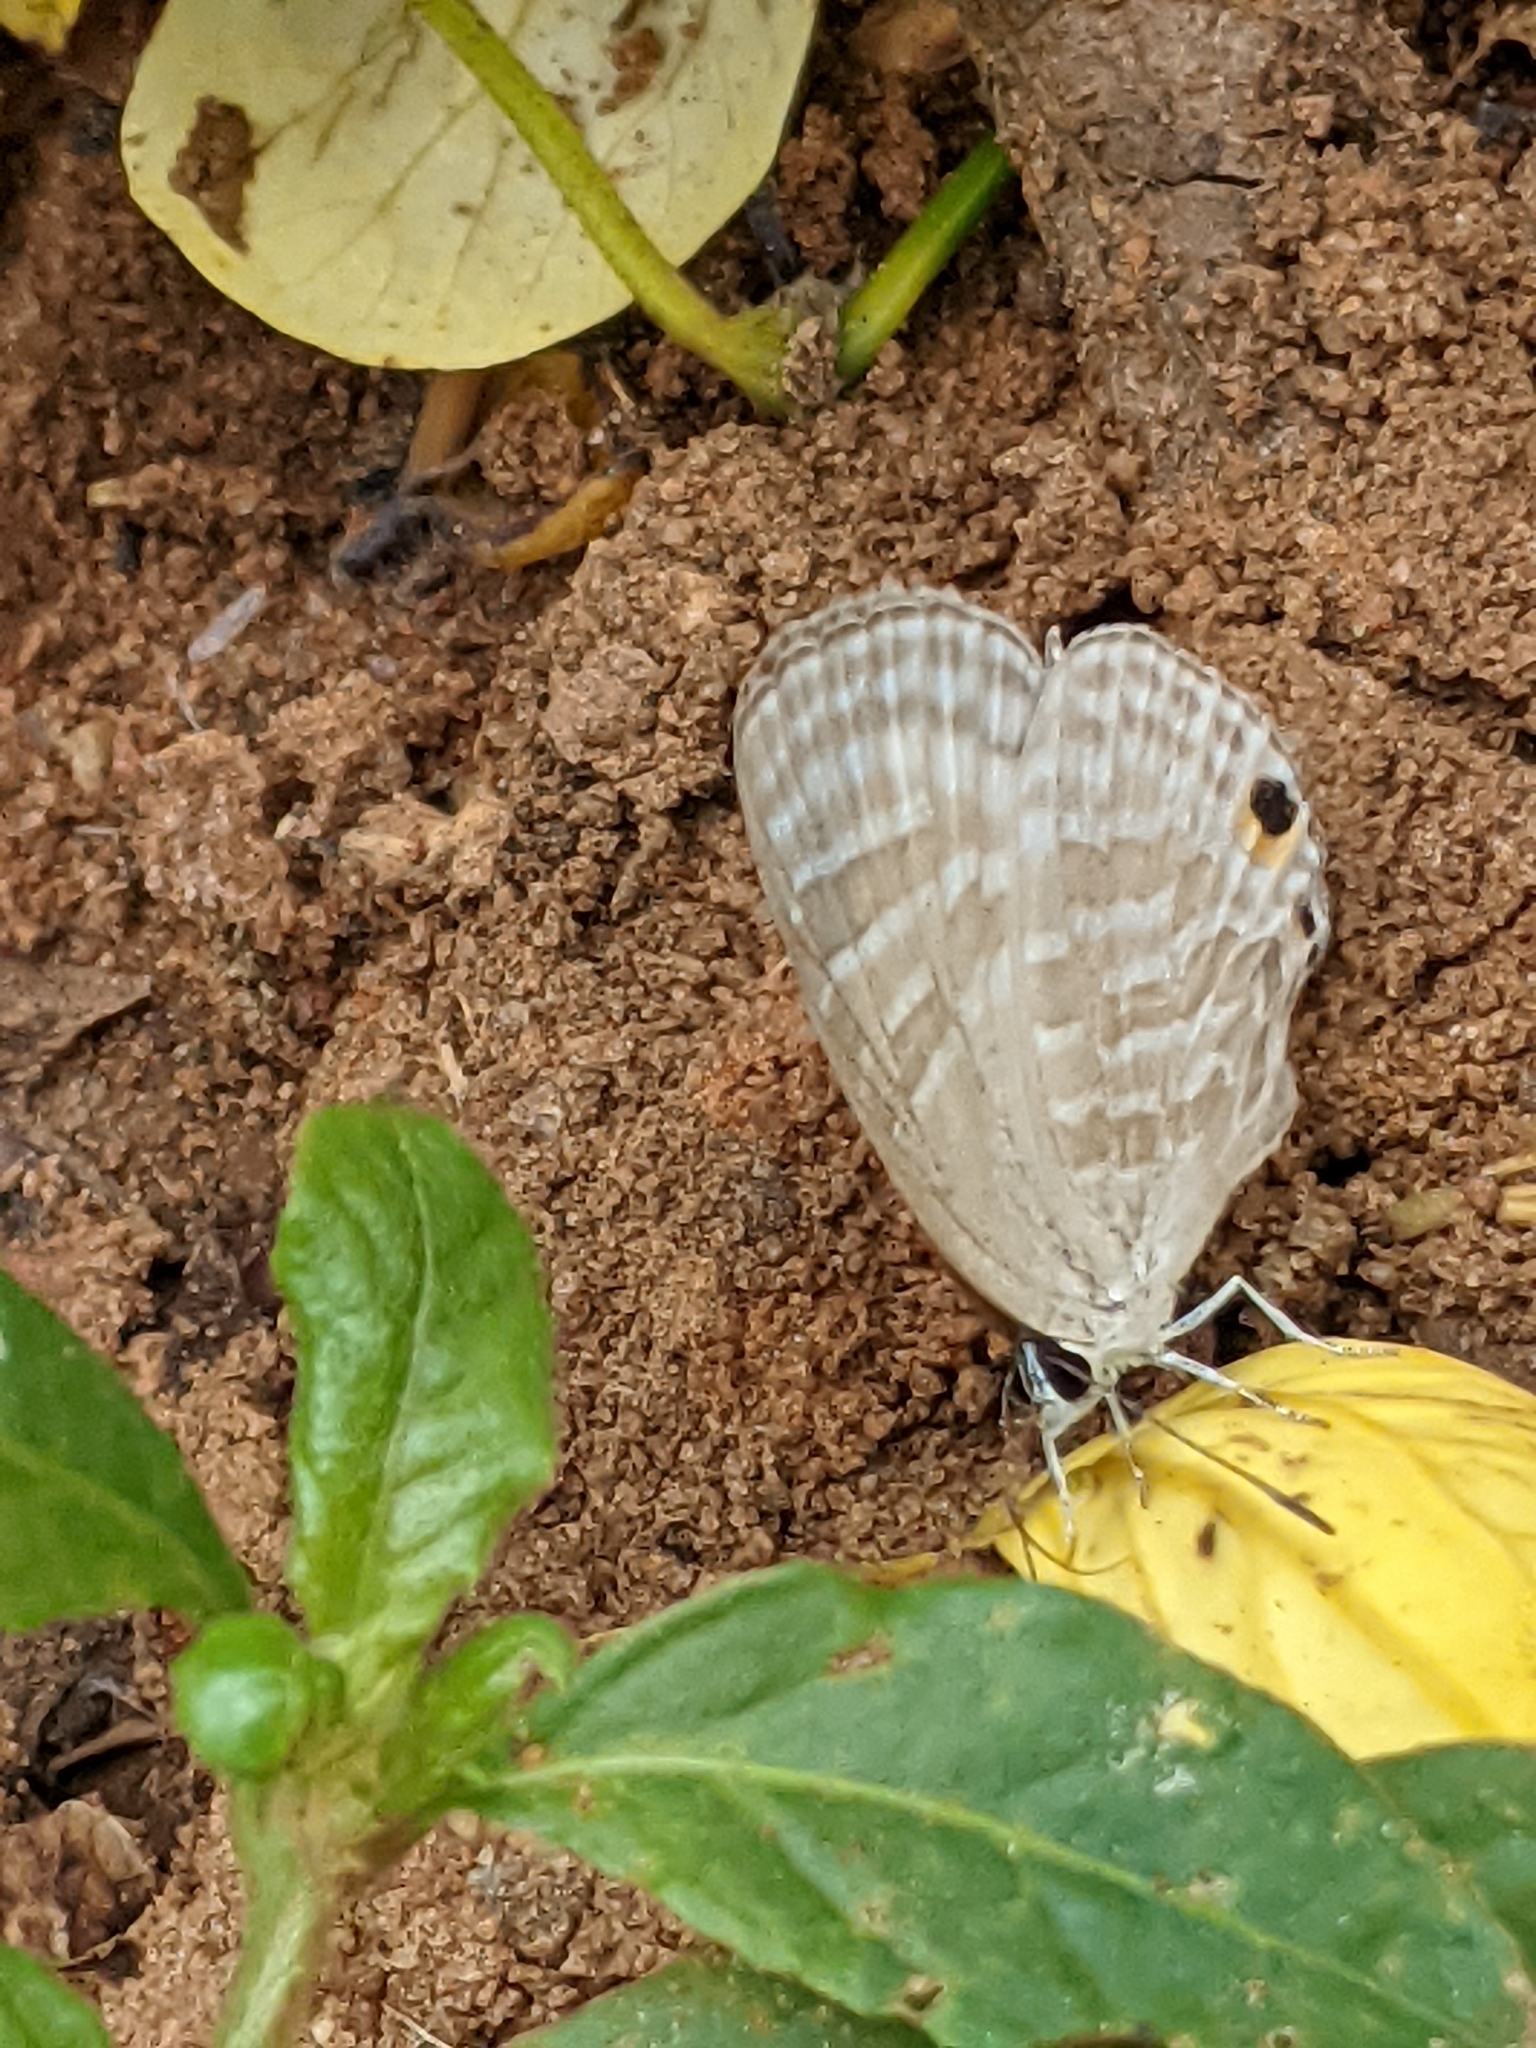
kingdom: Animalia
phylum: Arthropoda
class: Insecta
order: Lepidoptera
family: Lycaenidae
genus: Jamides
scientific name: Jamides celeno
